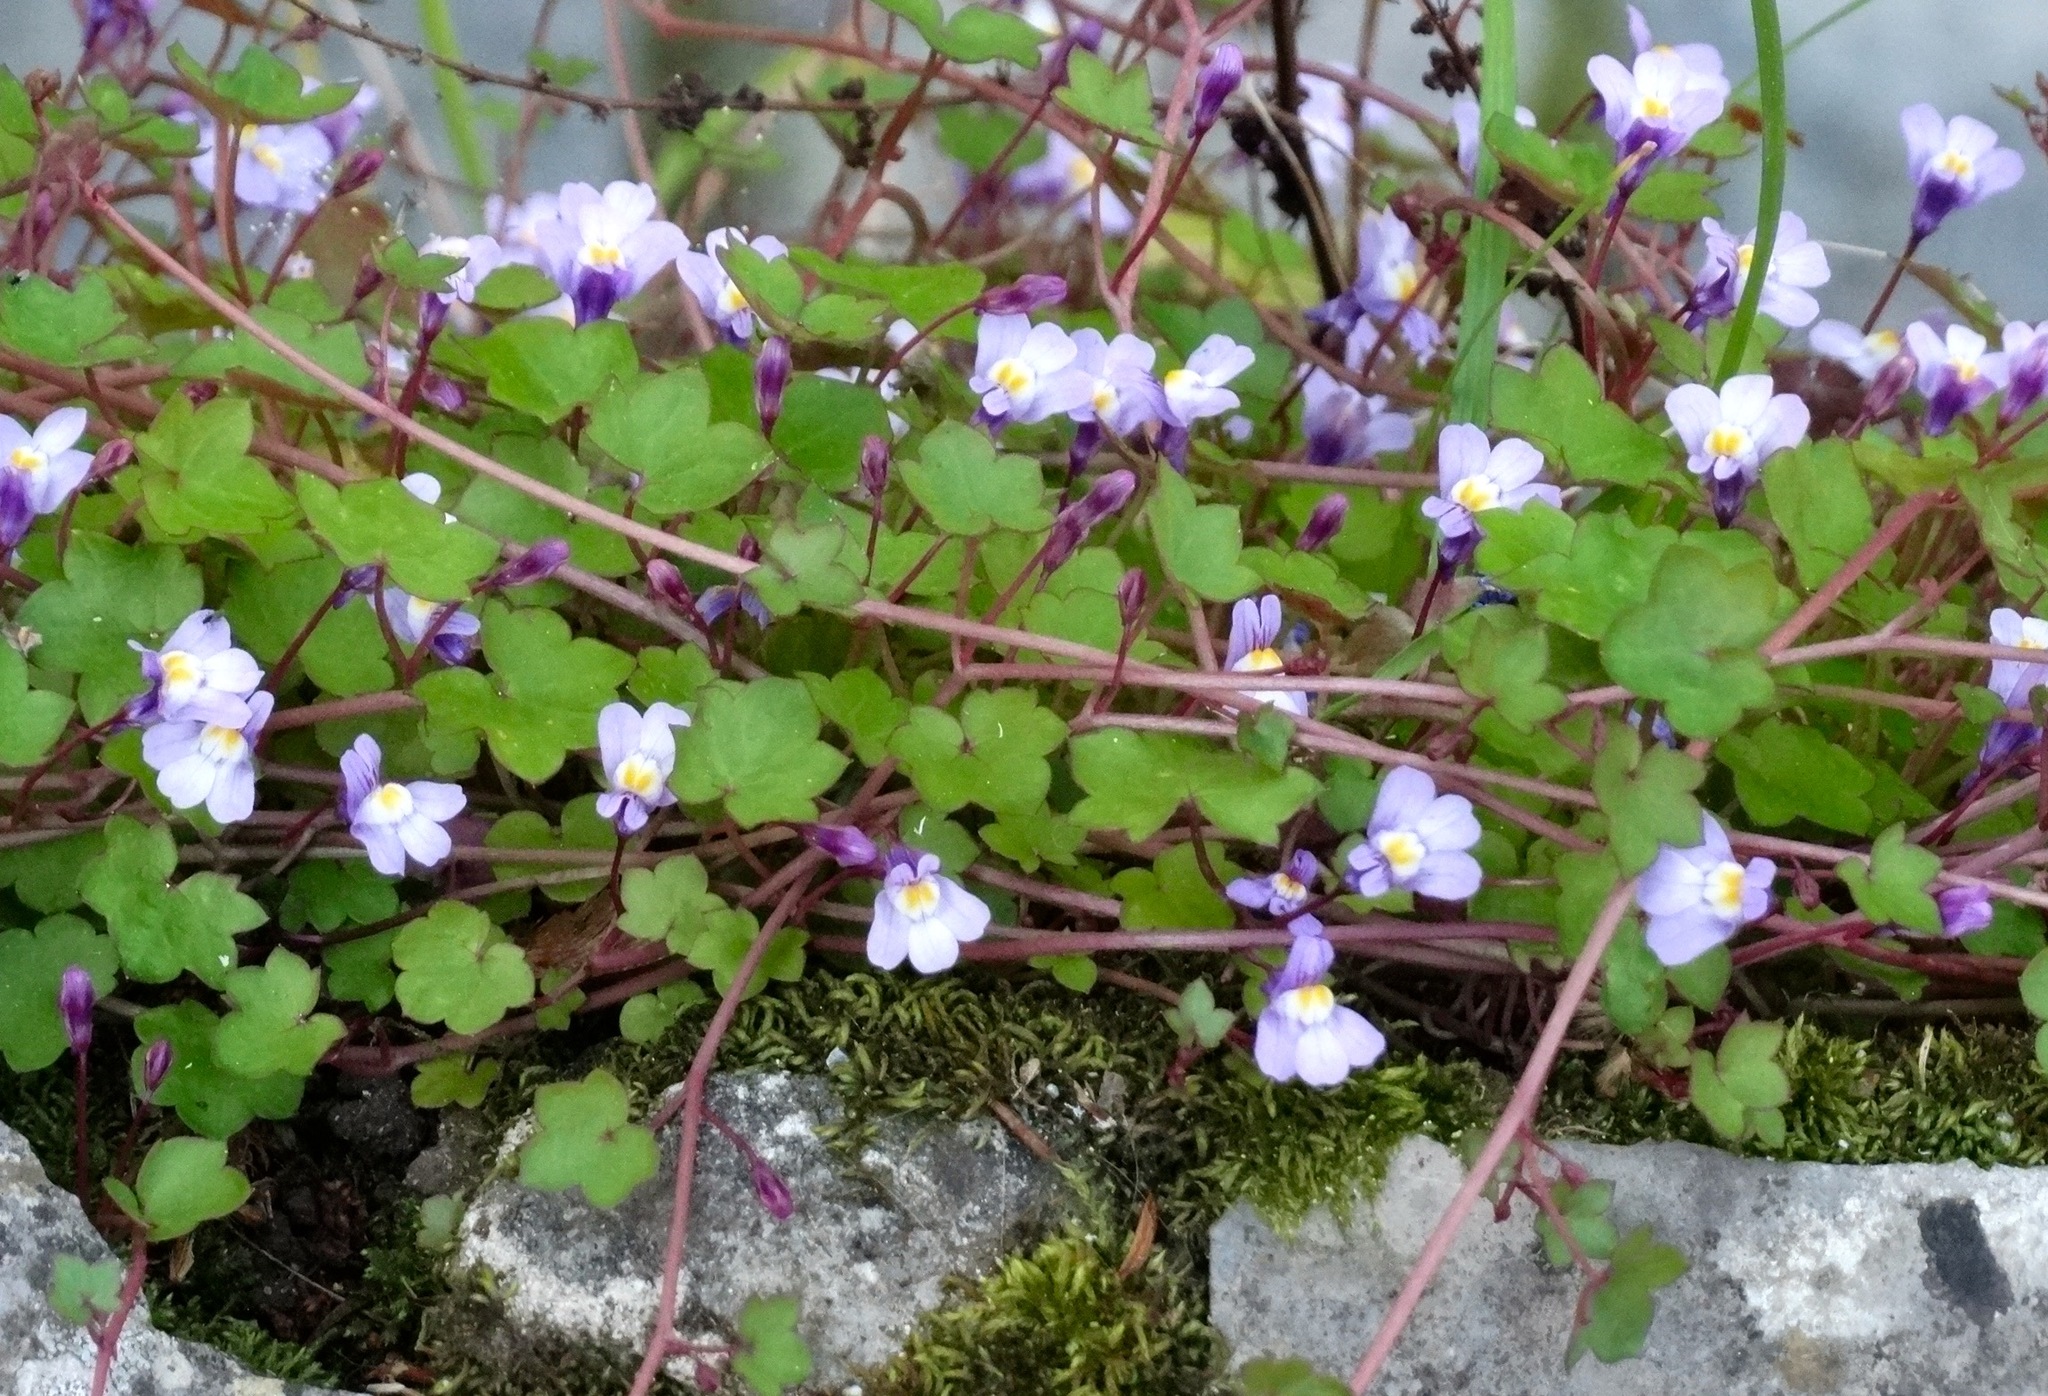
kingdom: Plantae
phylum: Tracheophyta
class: Magnoliopsida
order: Lamiales
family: Plantaginaceae
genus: Cymbalaria
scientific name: Cymbalaria muralis
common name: Ivy-leaved toadflax
